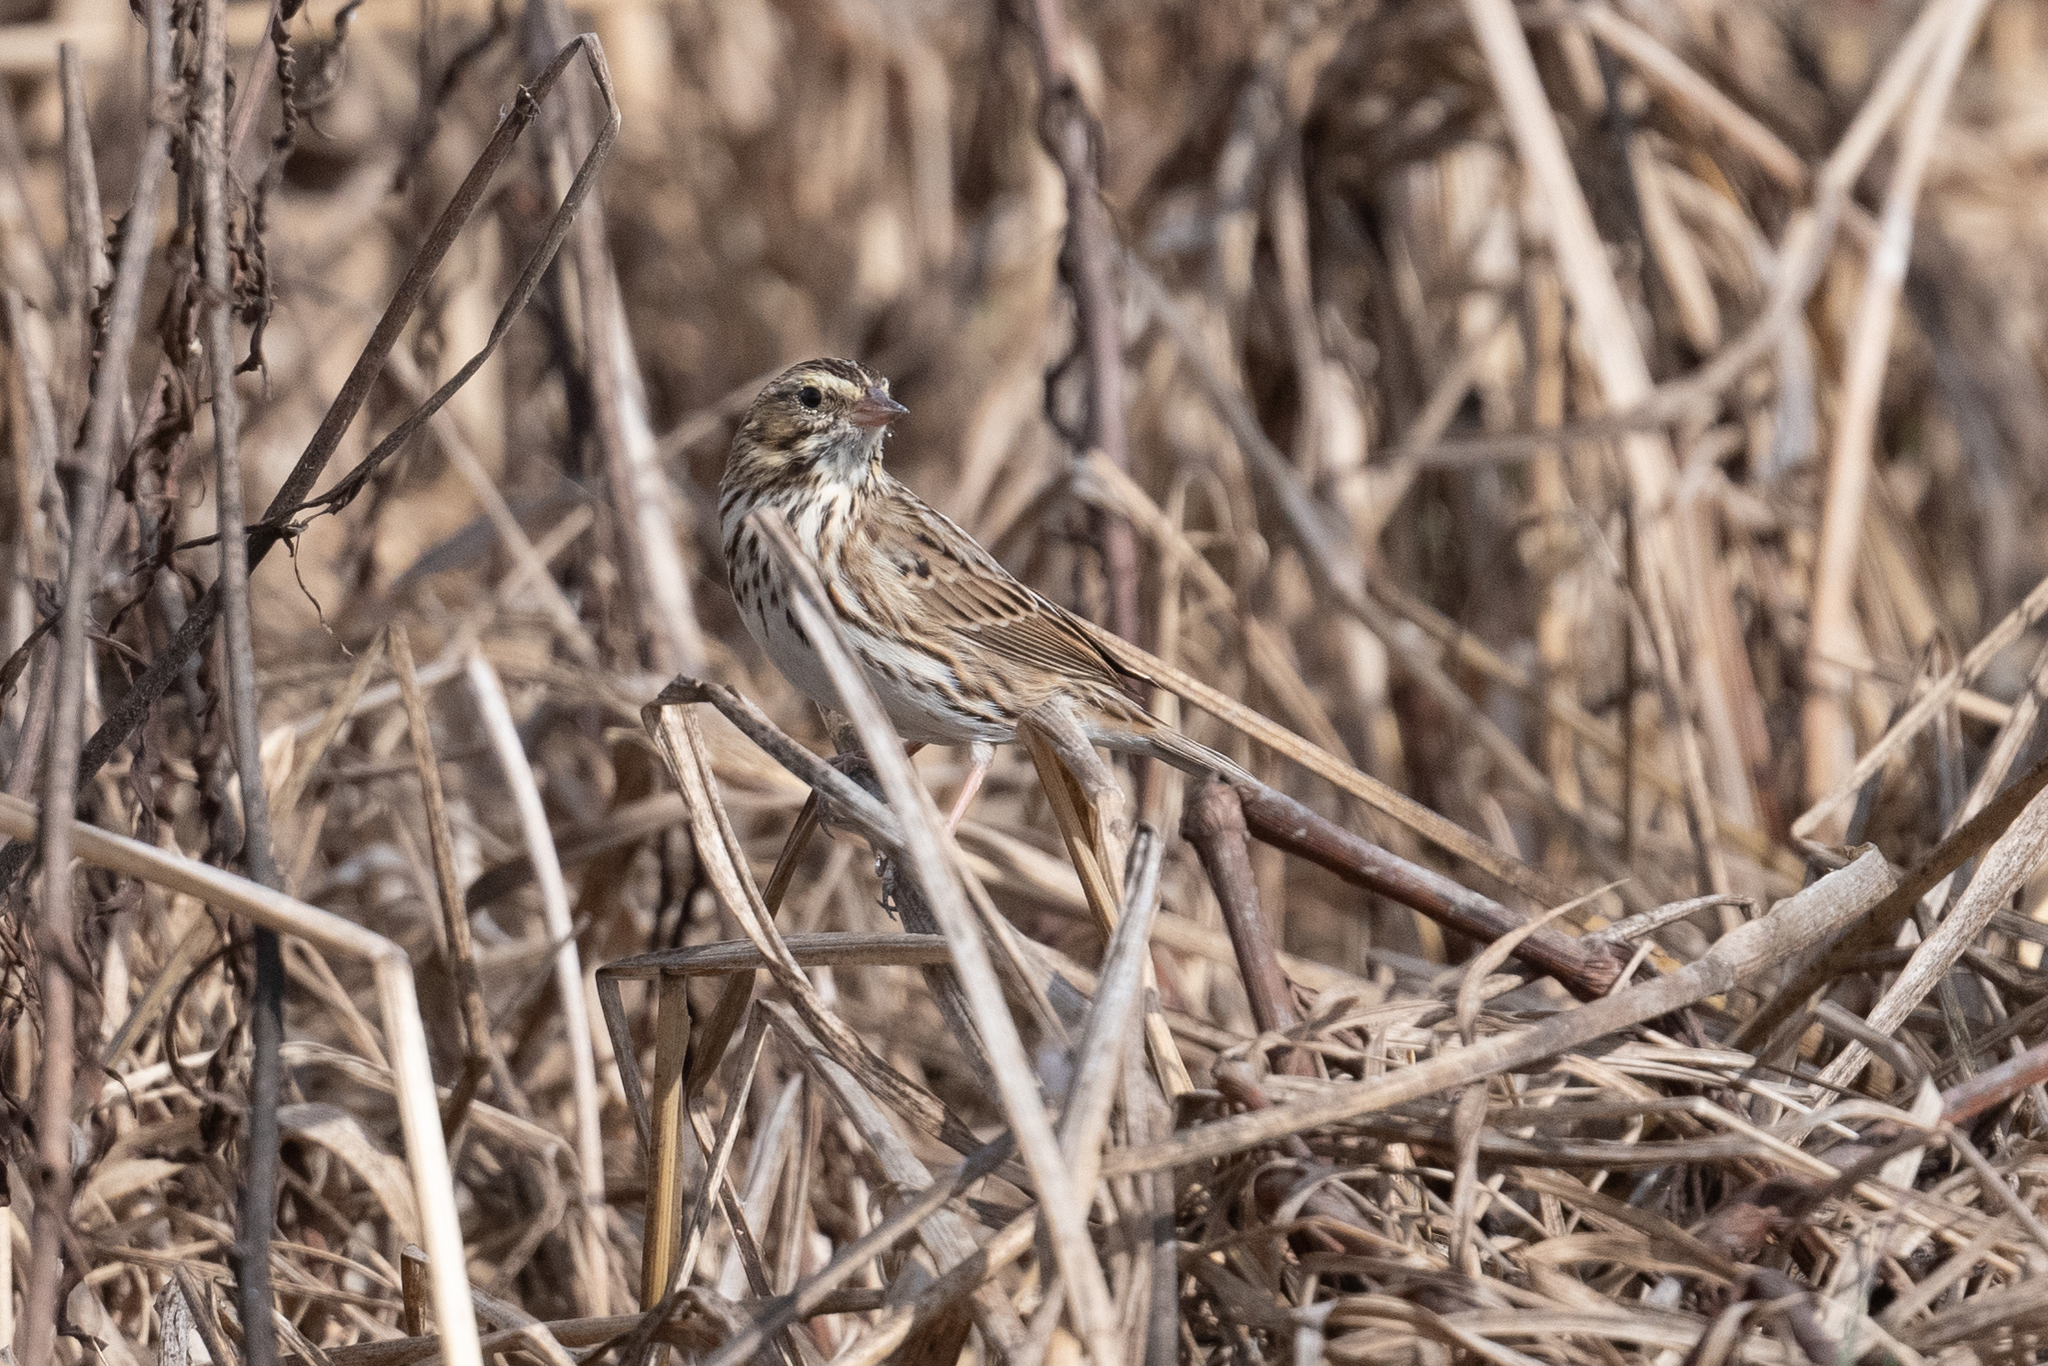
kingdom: Animalia
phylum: Chordata
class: Aves
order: Passeriformes
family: Passerellidae
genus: Passerculus
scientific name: Passerculus sandwichensis
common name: Savannah sparrow
